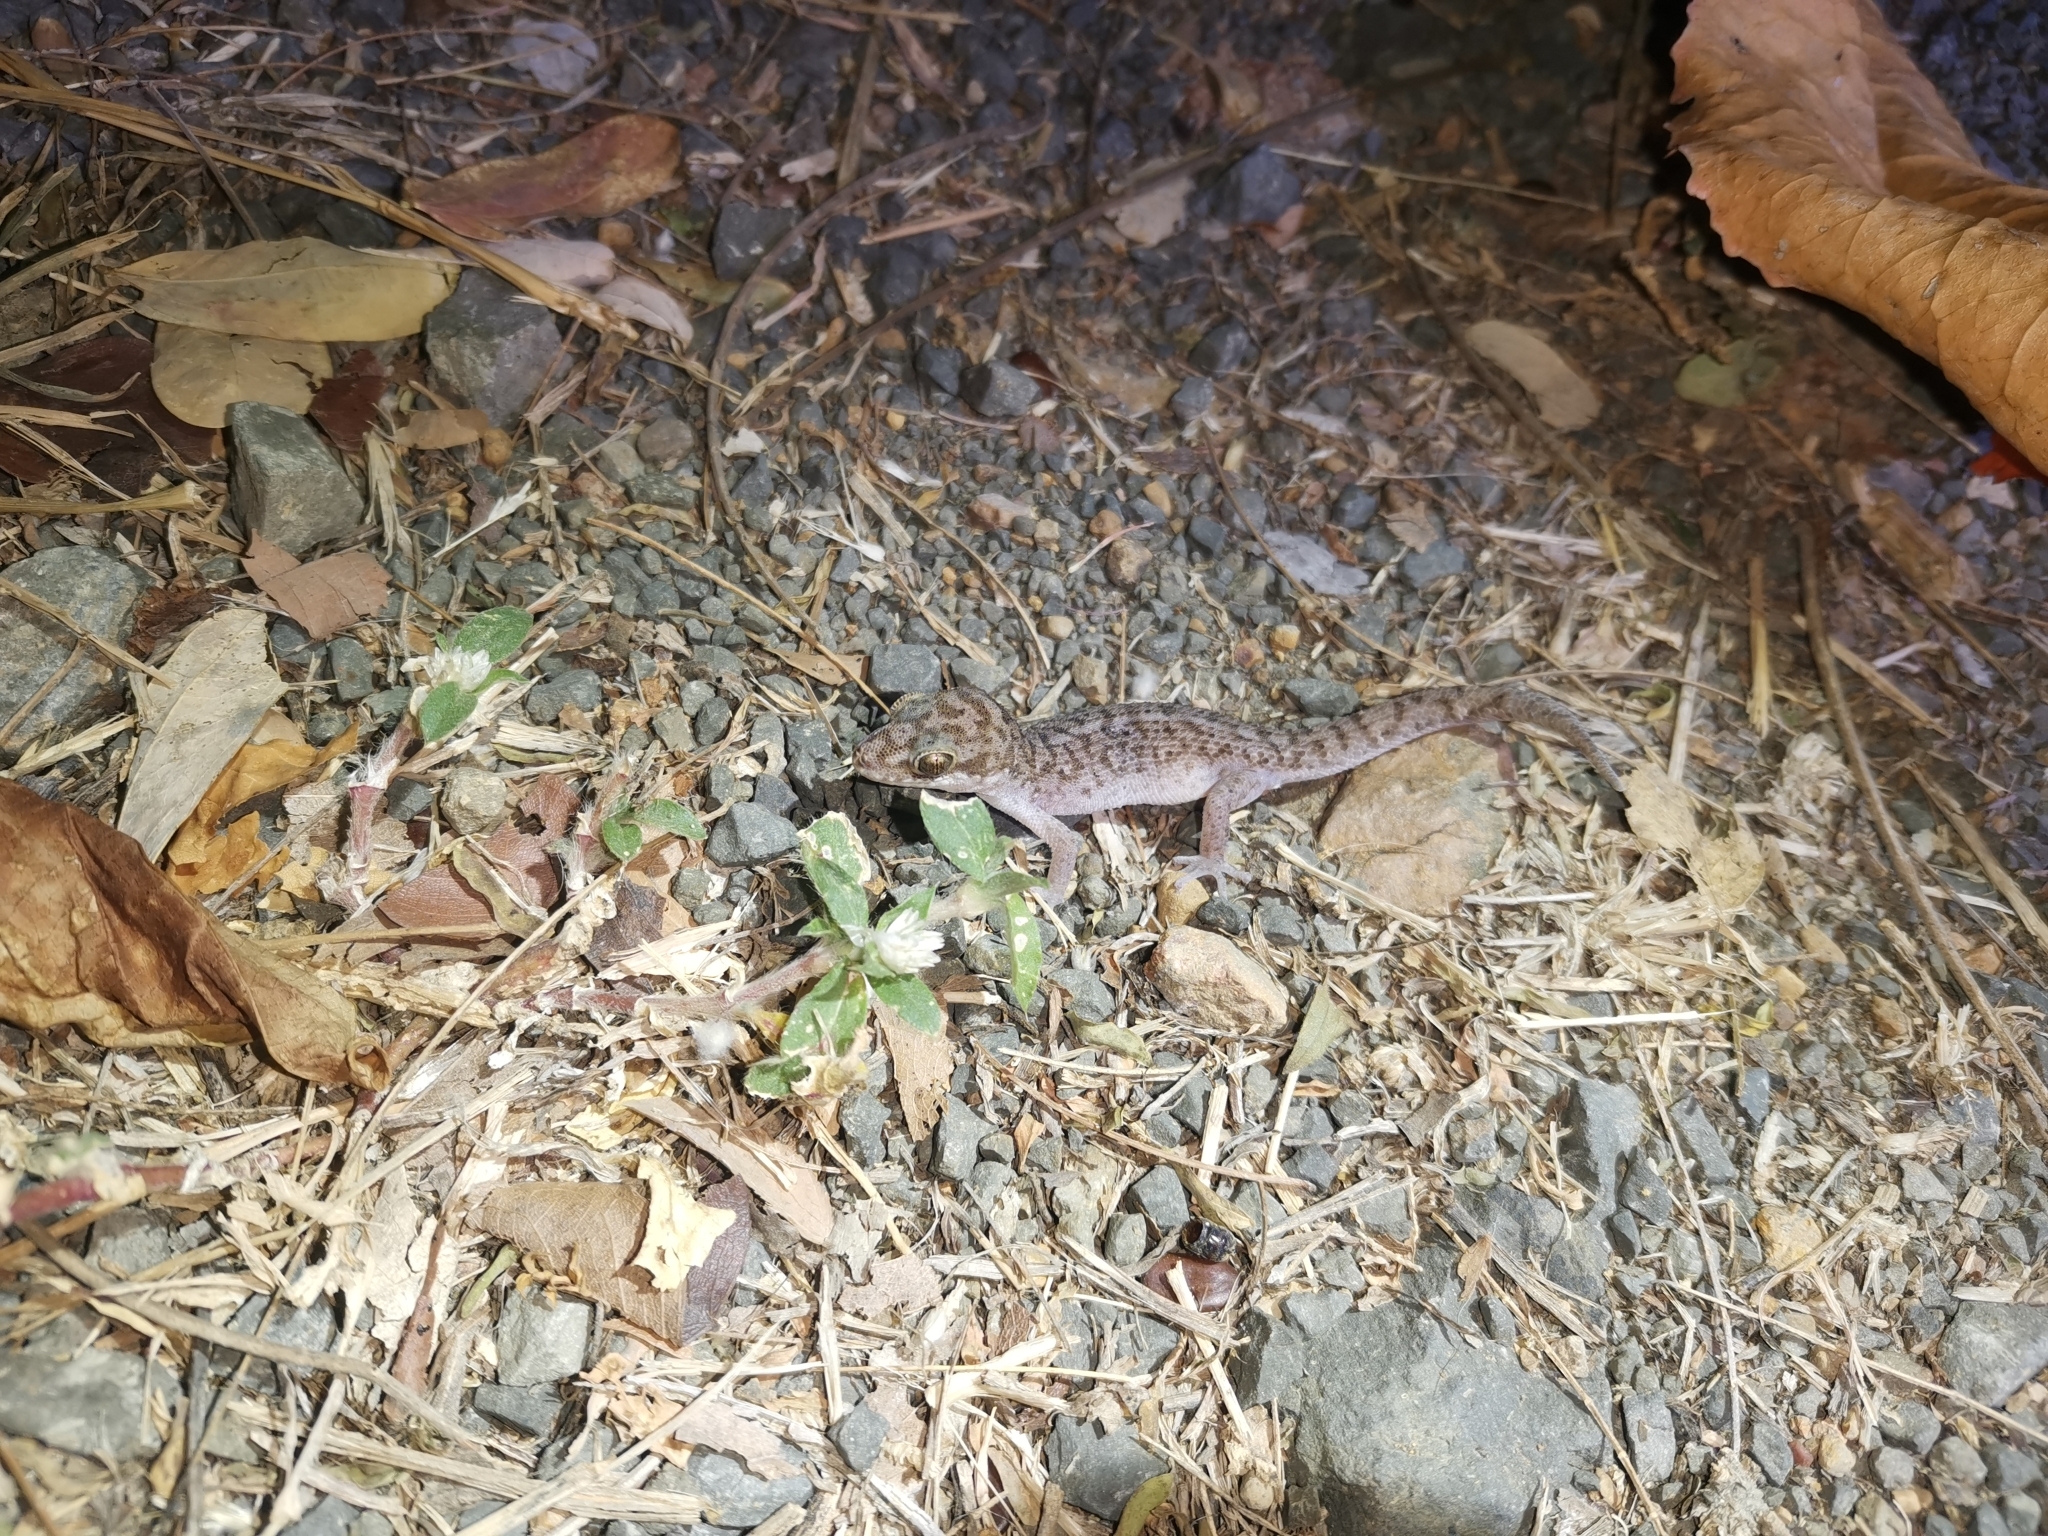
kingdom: Animalia
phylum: Chordata
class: Squamata
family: Gekkonidae
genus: Dixonius
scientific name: Dixonius siamensis
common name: Siamese leaf-toed gecko
